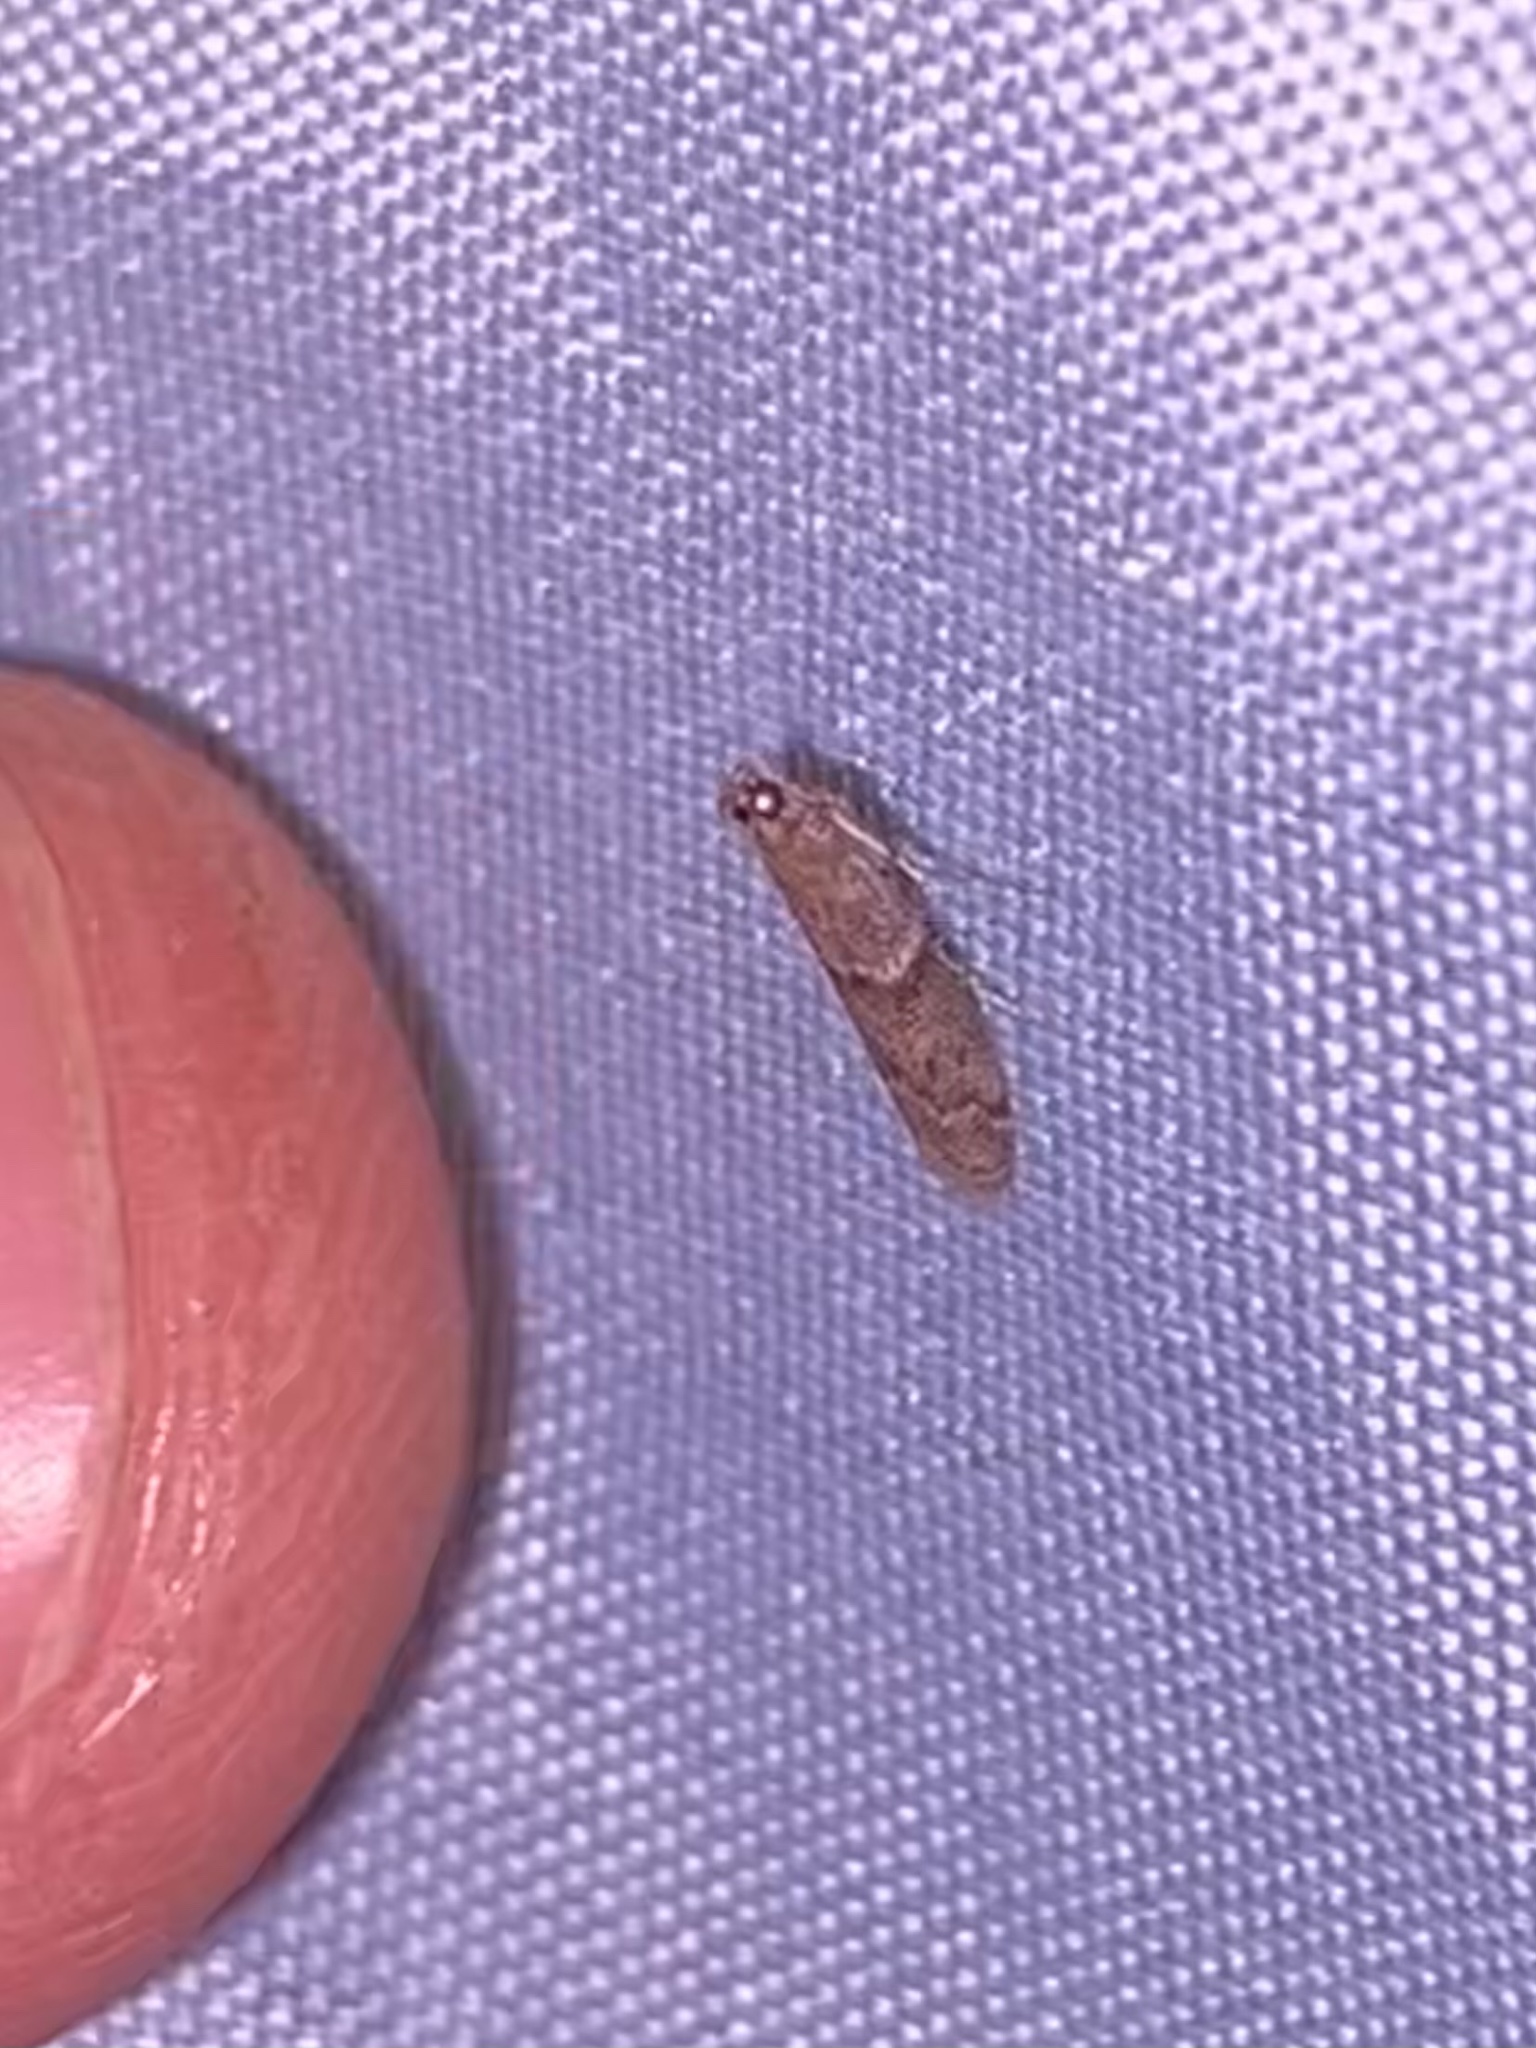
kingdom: Animalia
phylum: Arthropoda
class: Insecta
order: Lepidoptera
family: Pyralidae
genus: Ephestiodes
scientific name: Ephestiodes gilvescentella
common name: Moth
